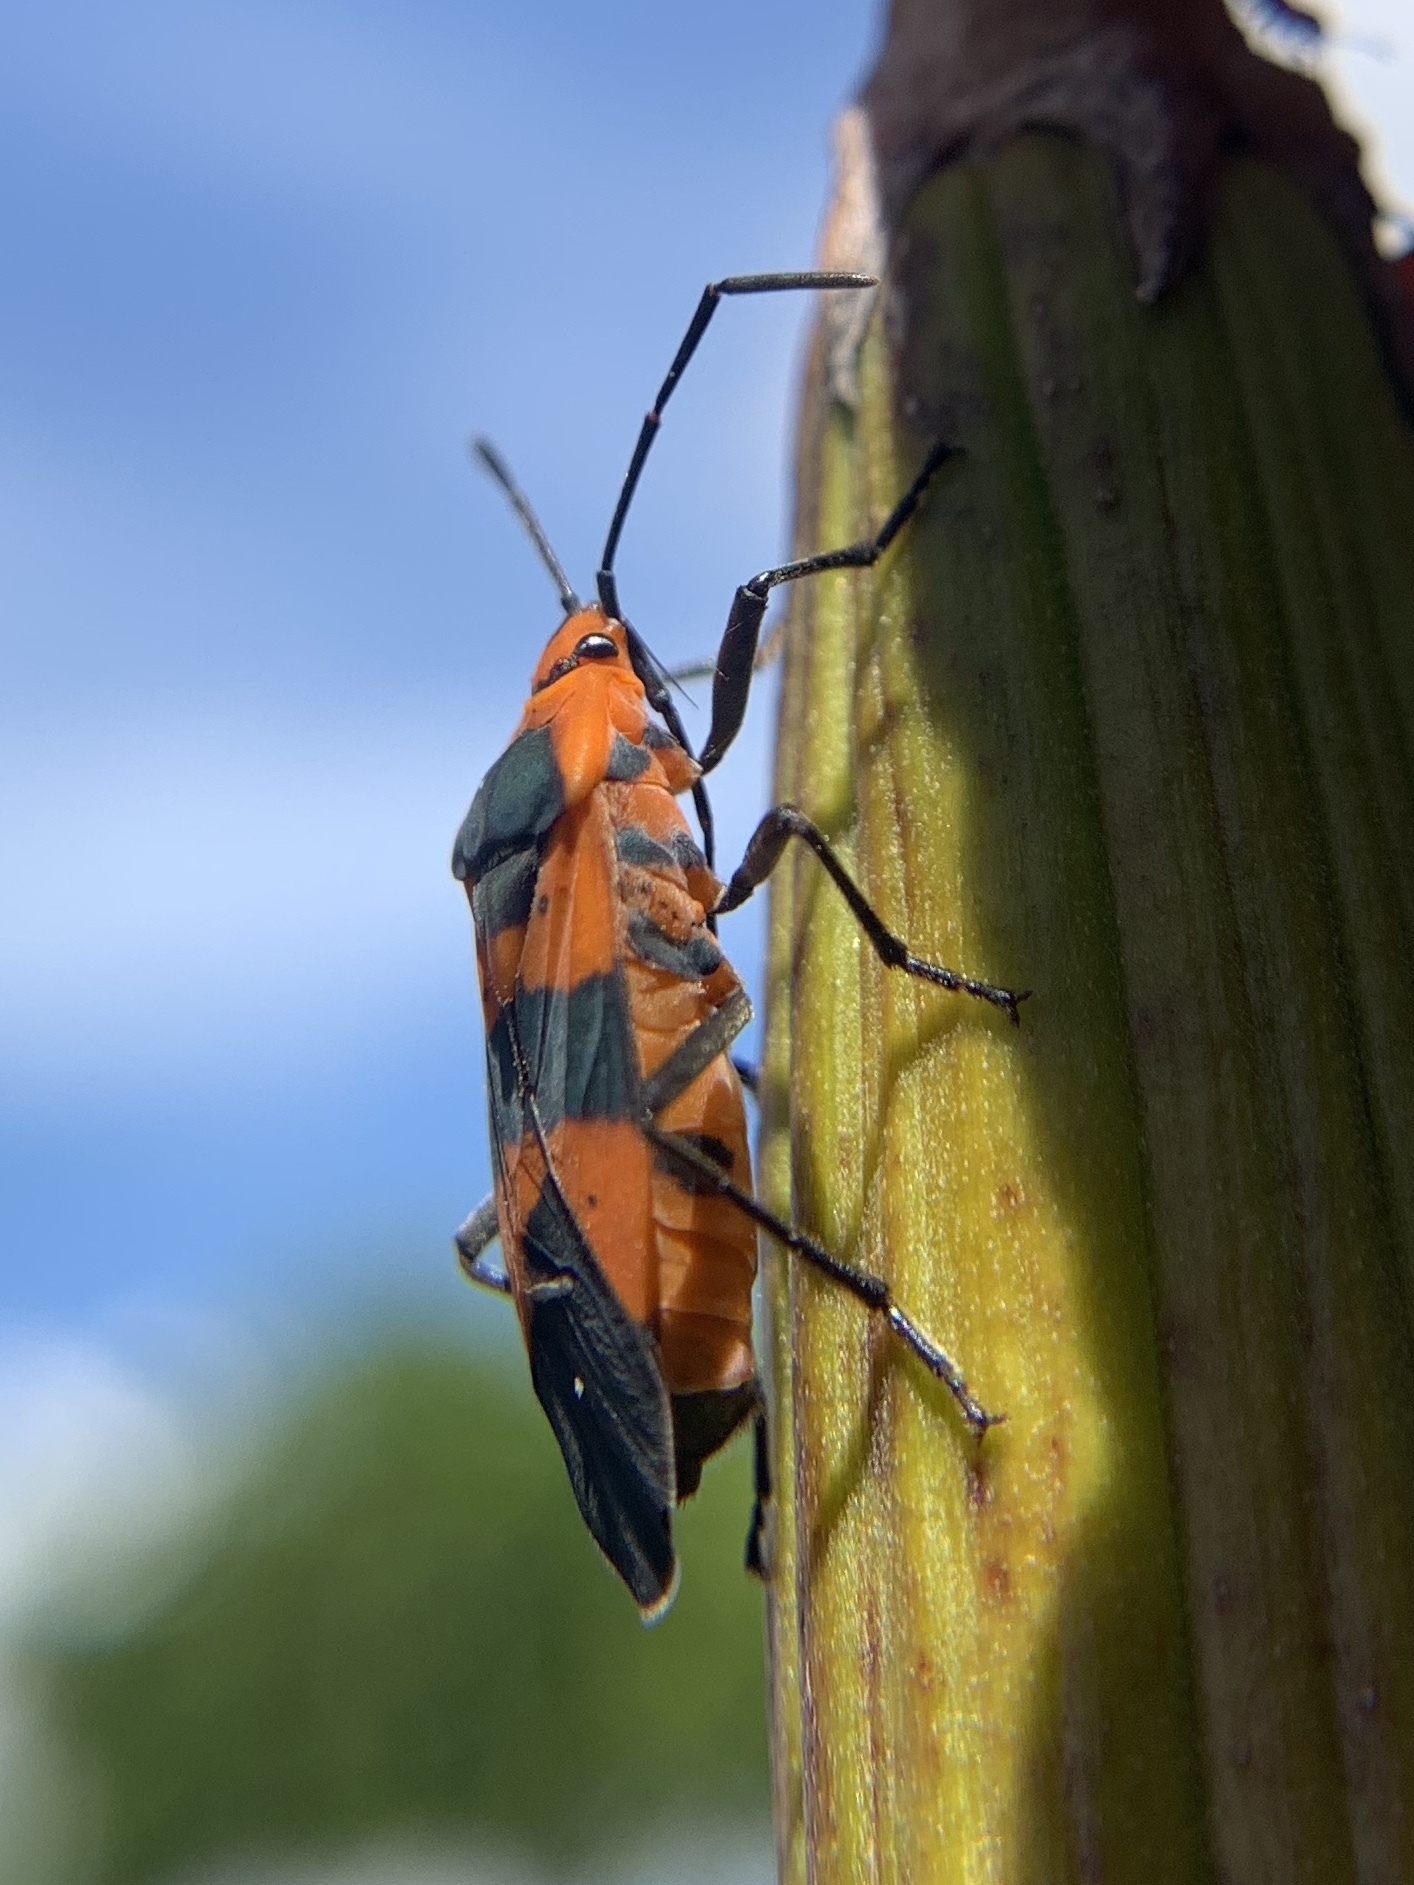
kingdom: Animalia
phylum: Arthropoda
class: Insecta
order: Hemiptera
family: Lygaeidae
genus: Oncopeltus
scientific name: Oncopeltus aulicus
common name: Lygaeid bug
